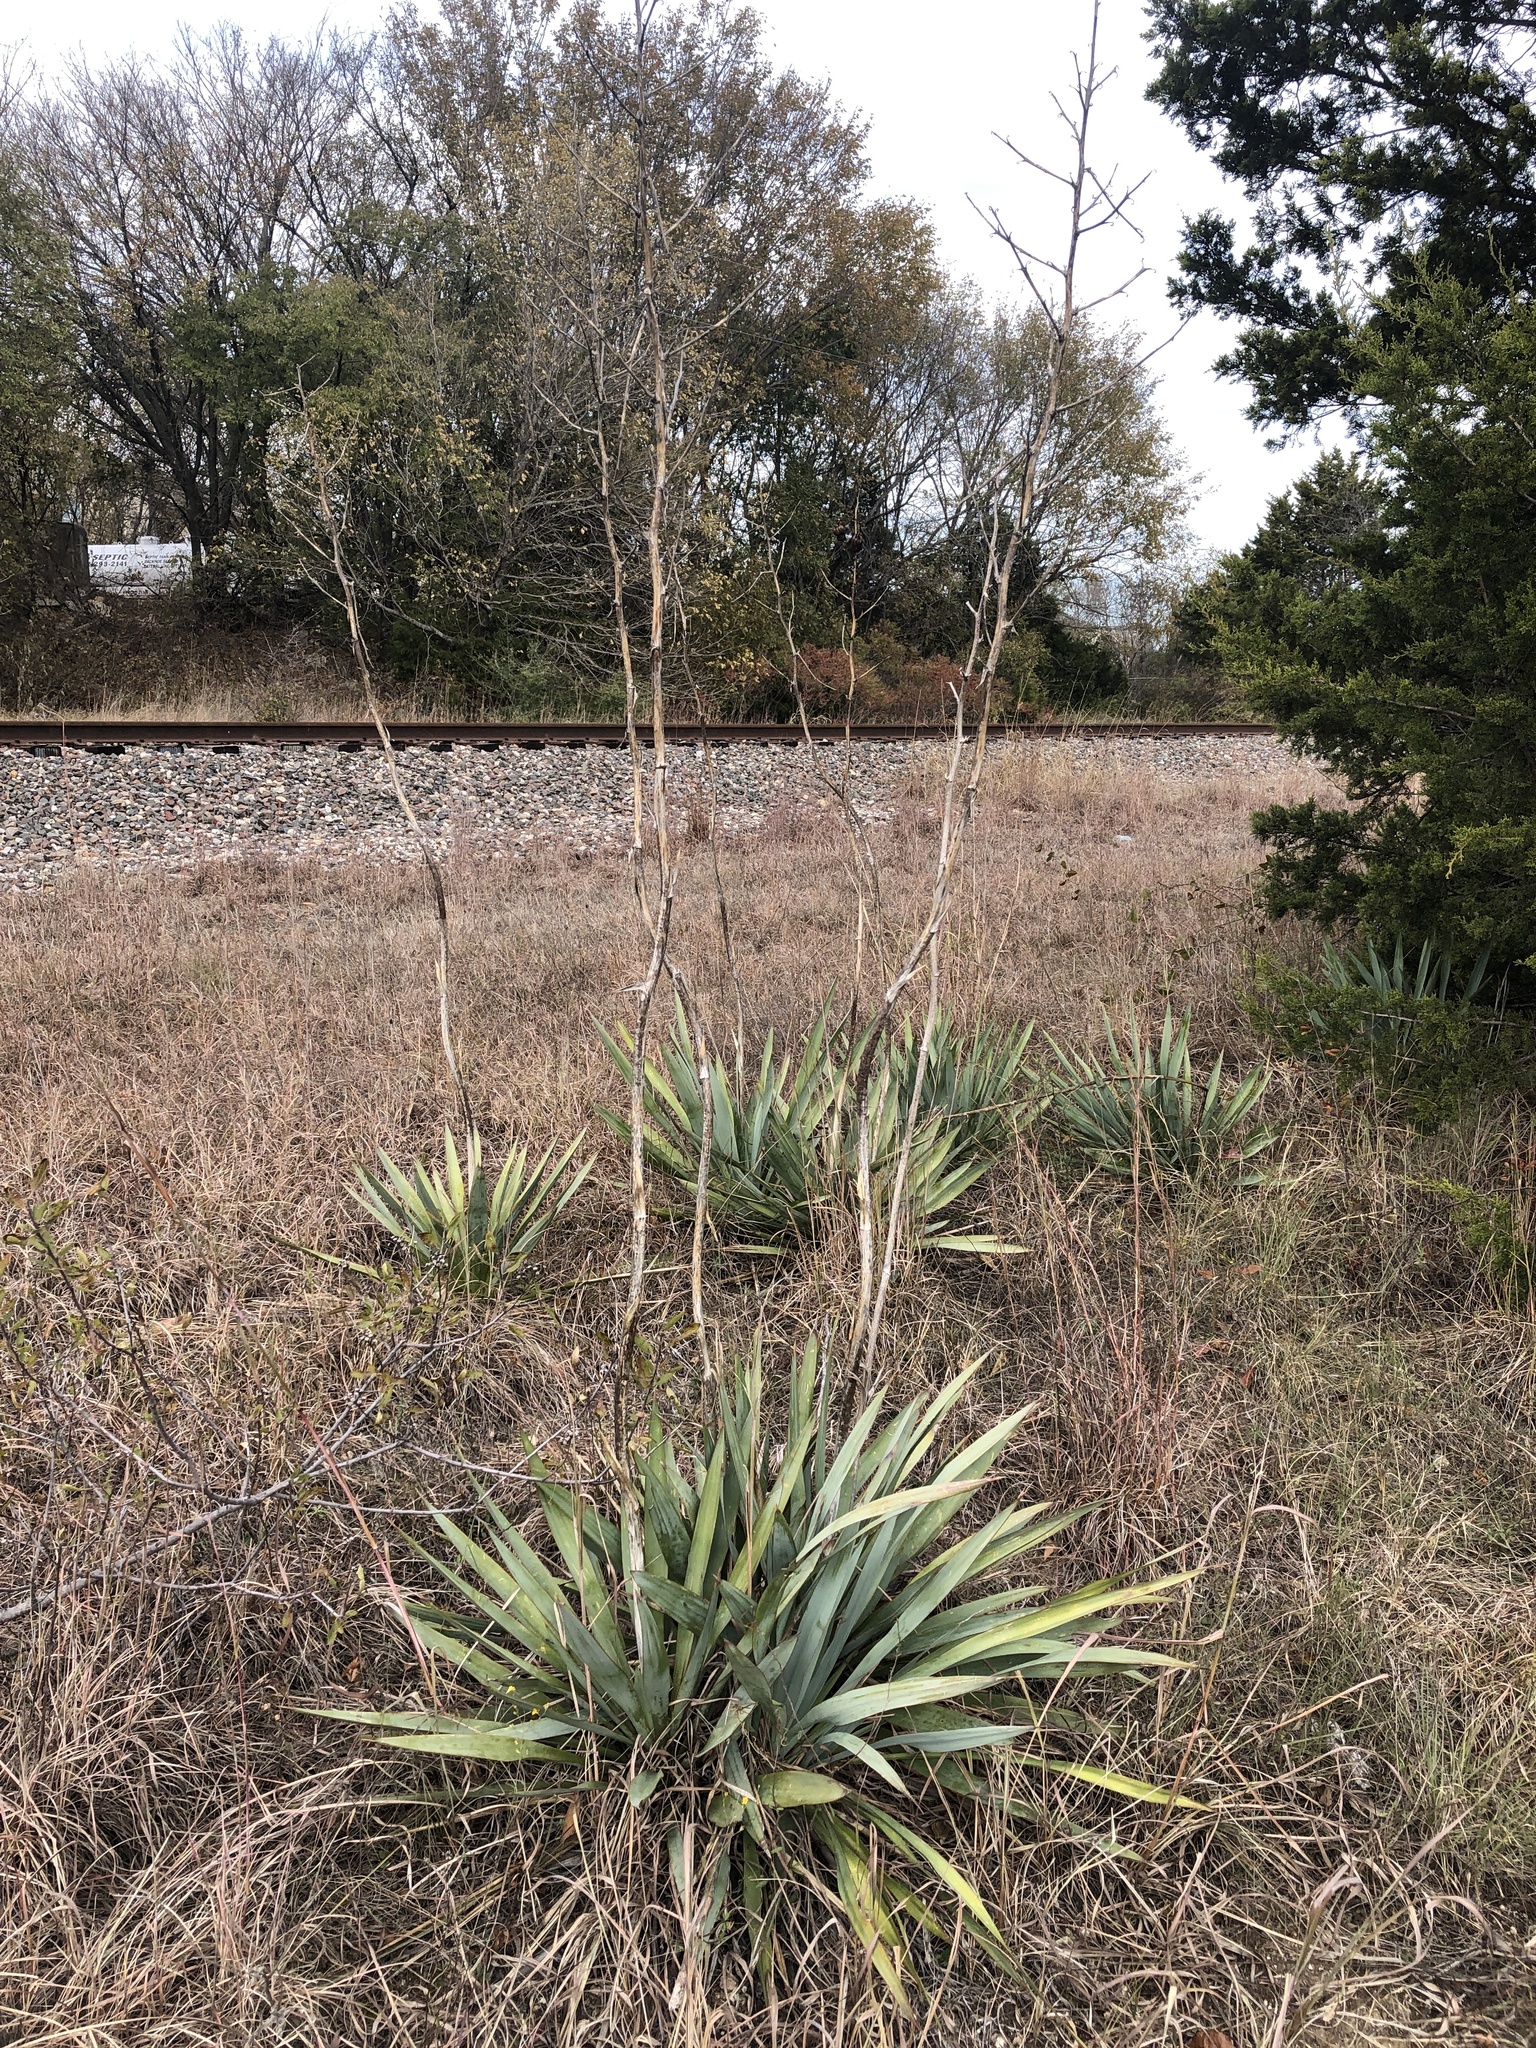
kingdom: Plantae
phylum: Tracheophyta
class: Liliopsida
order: Asparagales
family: Asparagaceae
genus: Yucca
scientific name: Yucca pallida
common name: Pale leaf yucca
